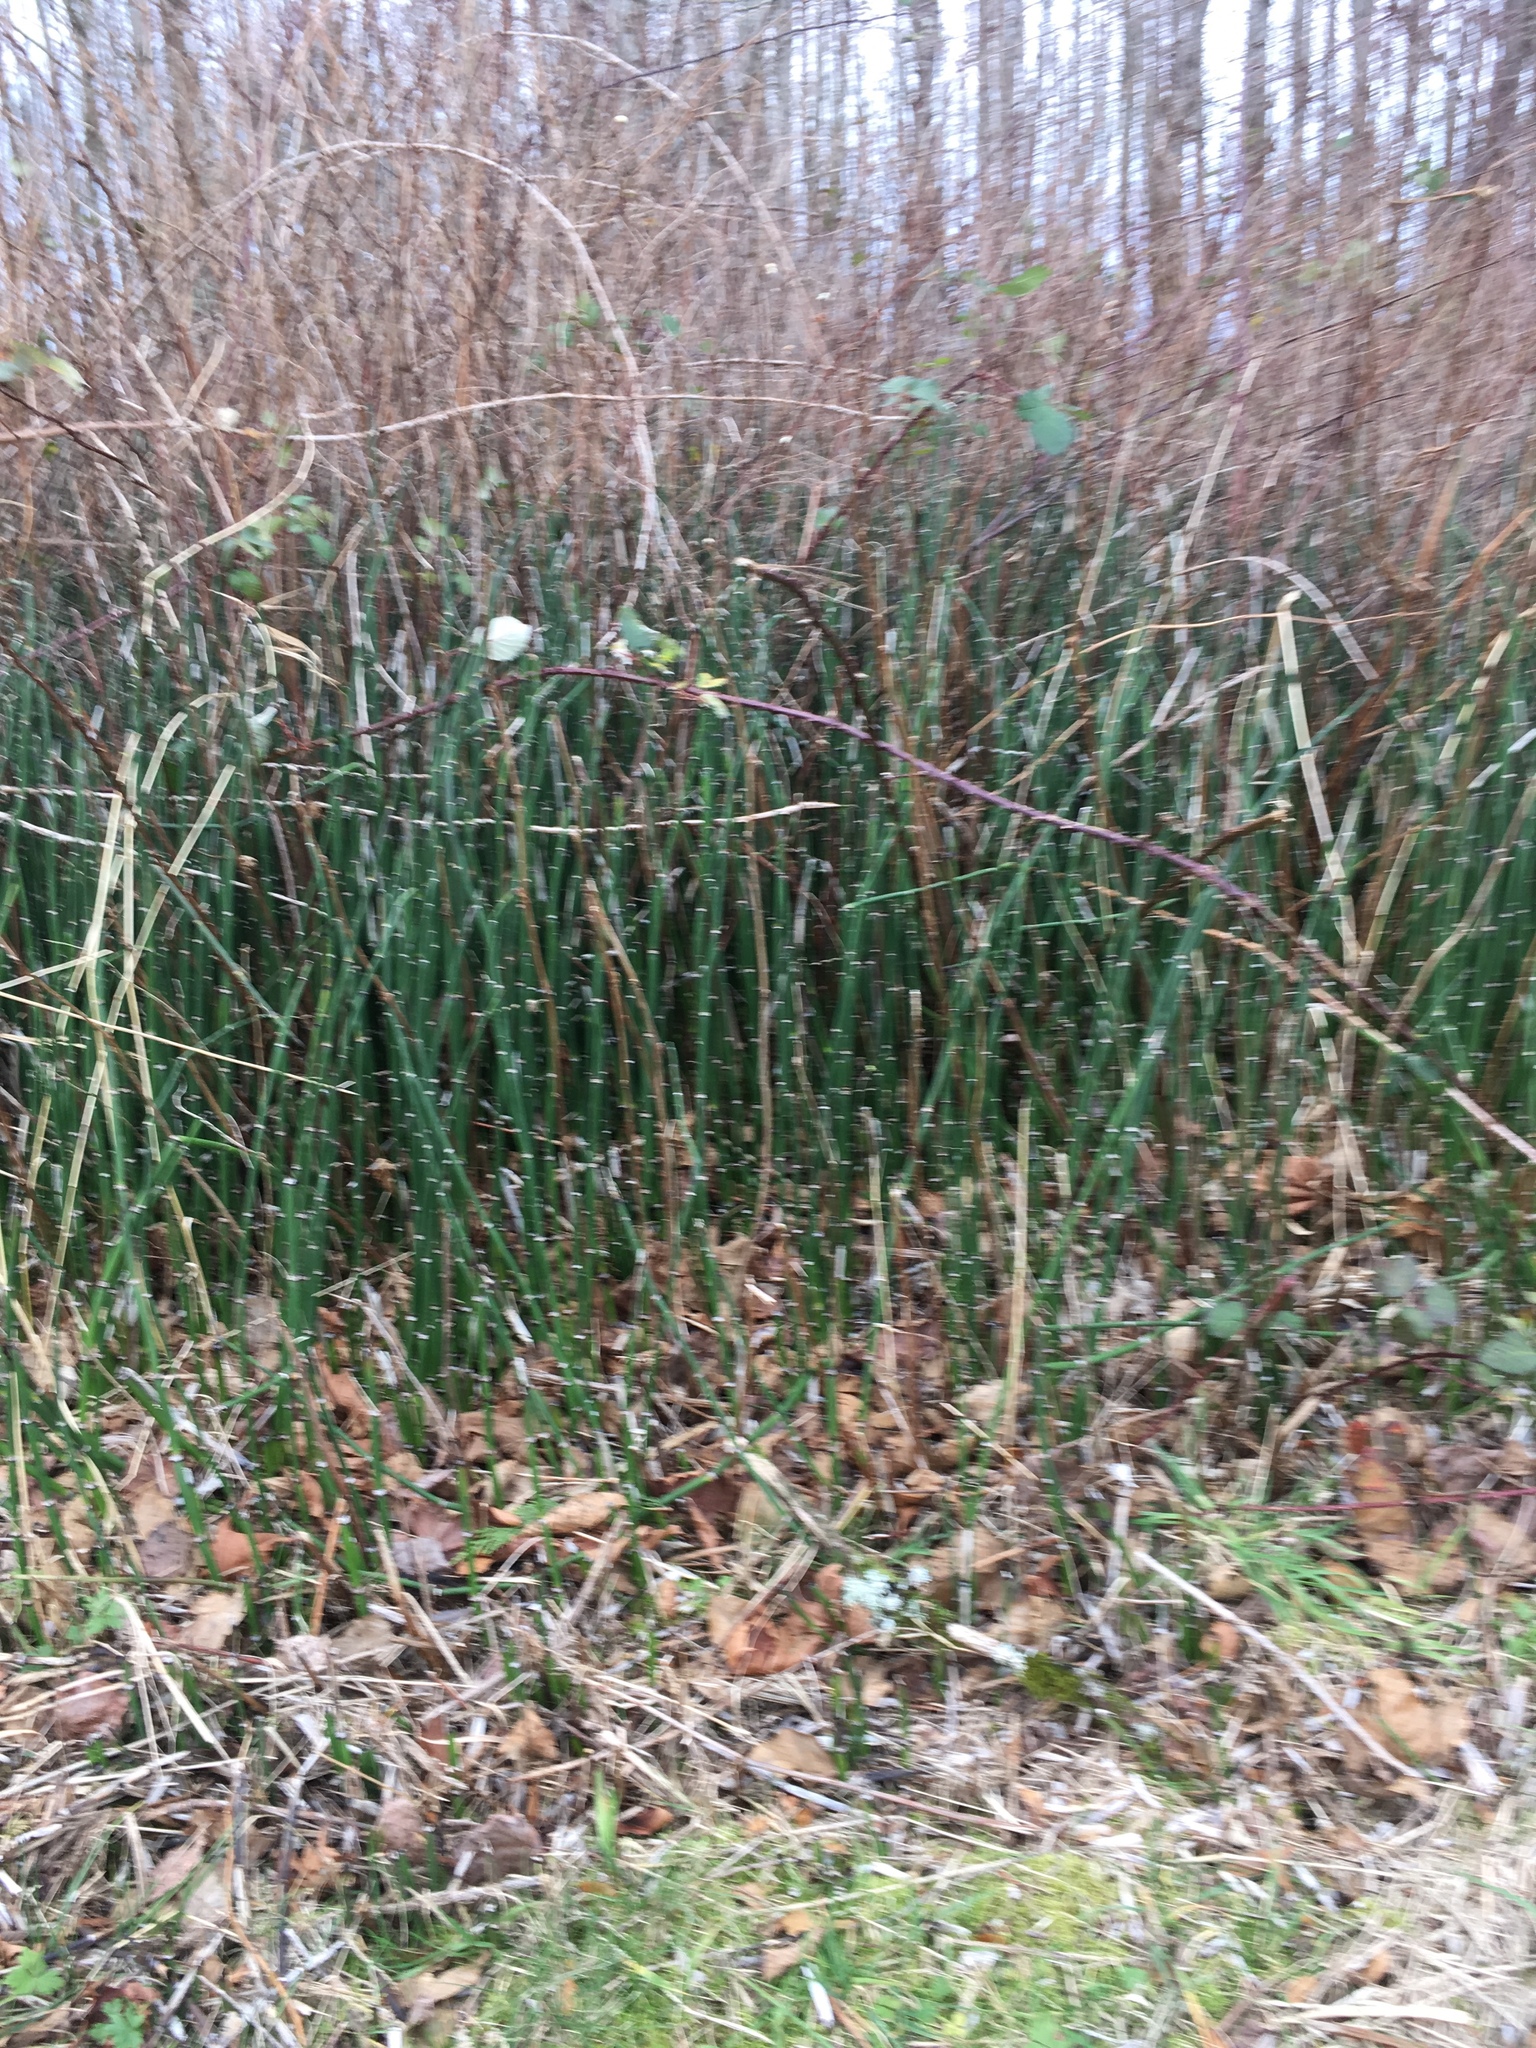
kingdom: Plantae
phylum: Tracheophyta
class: Polypodiopsida
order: Equisetales
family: Equisetaceae
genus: Equisetum
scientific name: Equisetum hyemale
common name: Rough horsetail
